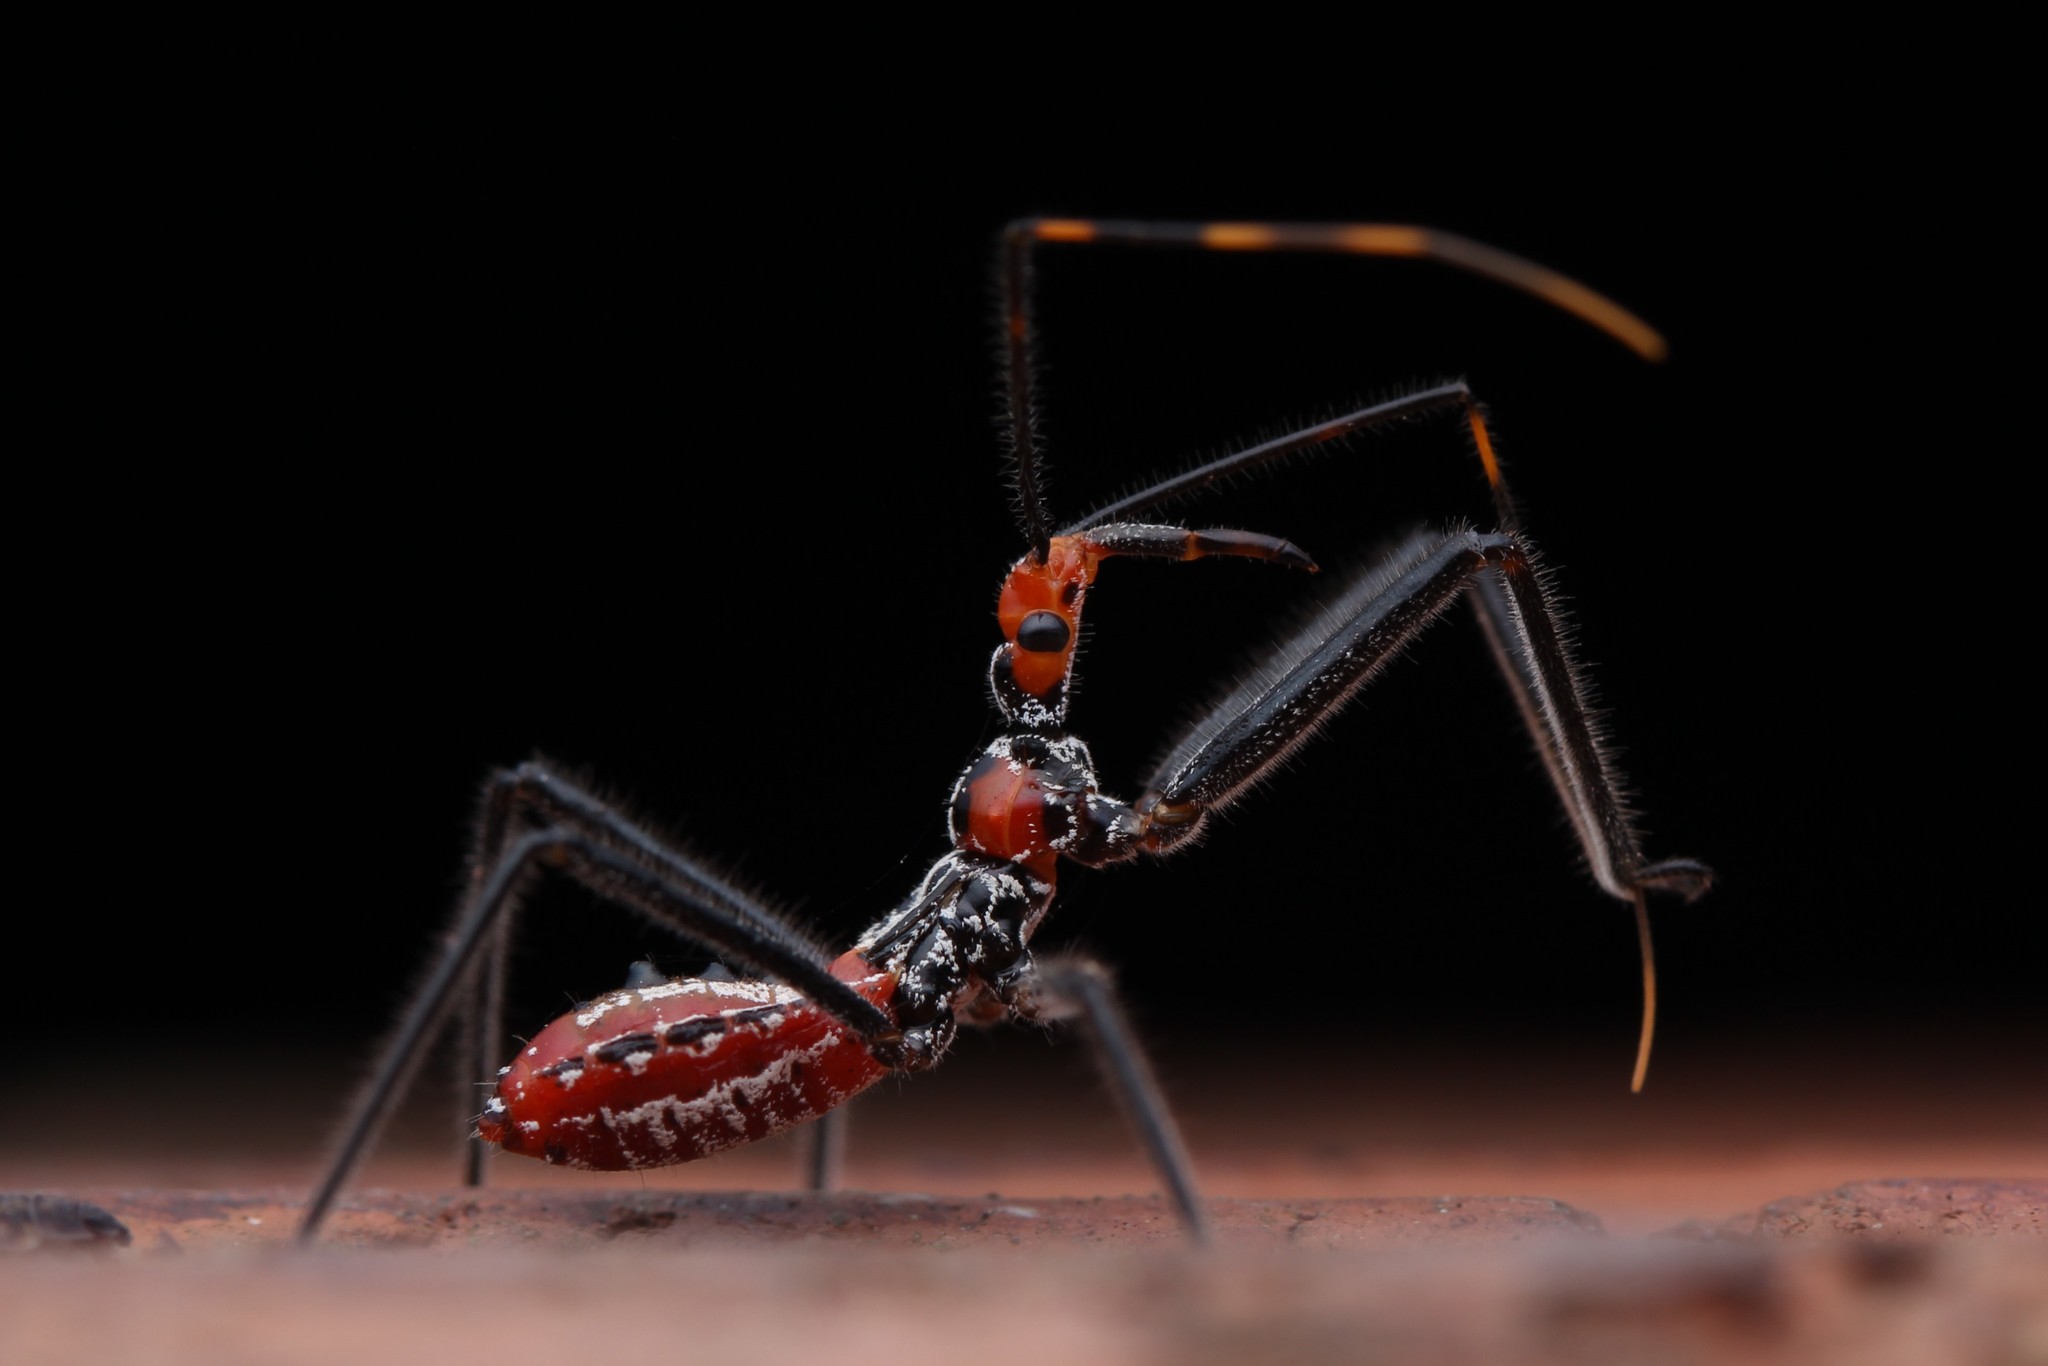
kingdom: Animalia
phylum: Arthropoda
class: Insecta
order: Hemiptera
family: Reduviidae
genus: Isyndus
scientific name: Isyndus reticulatus
